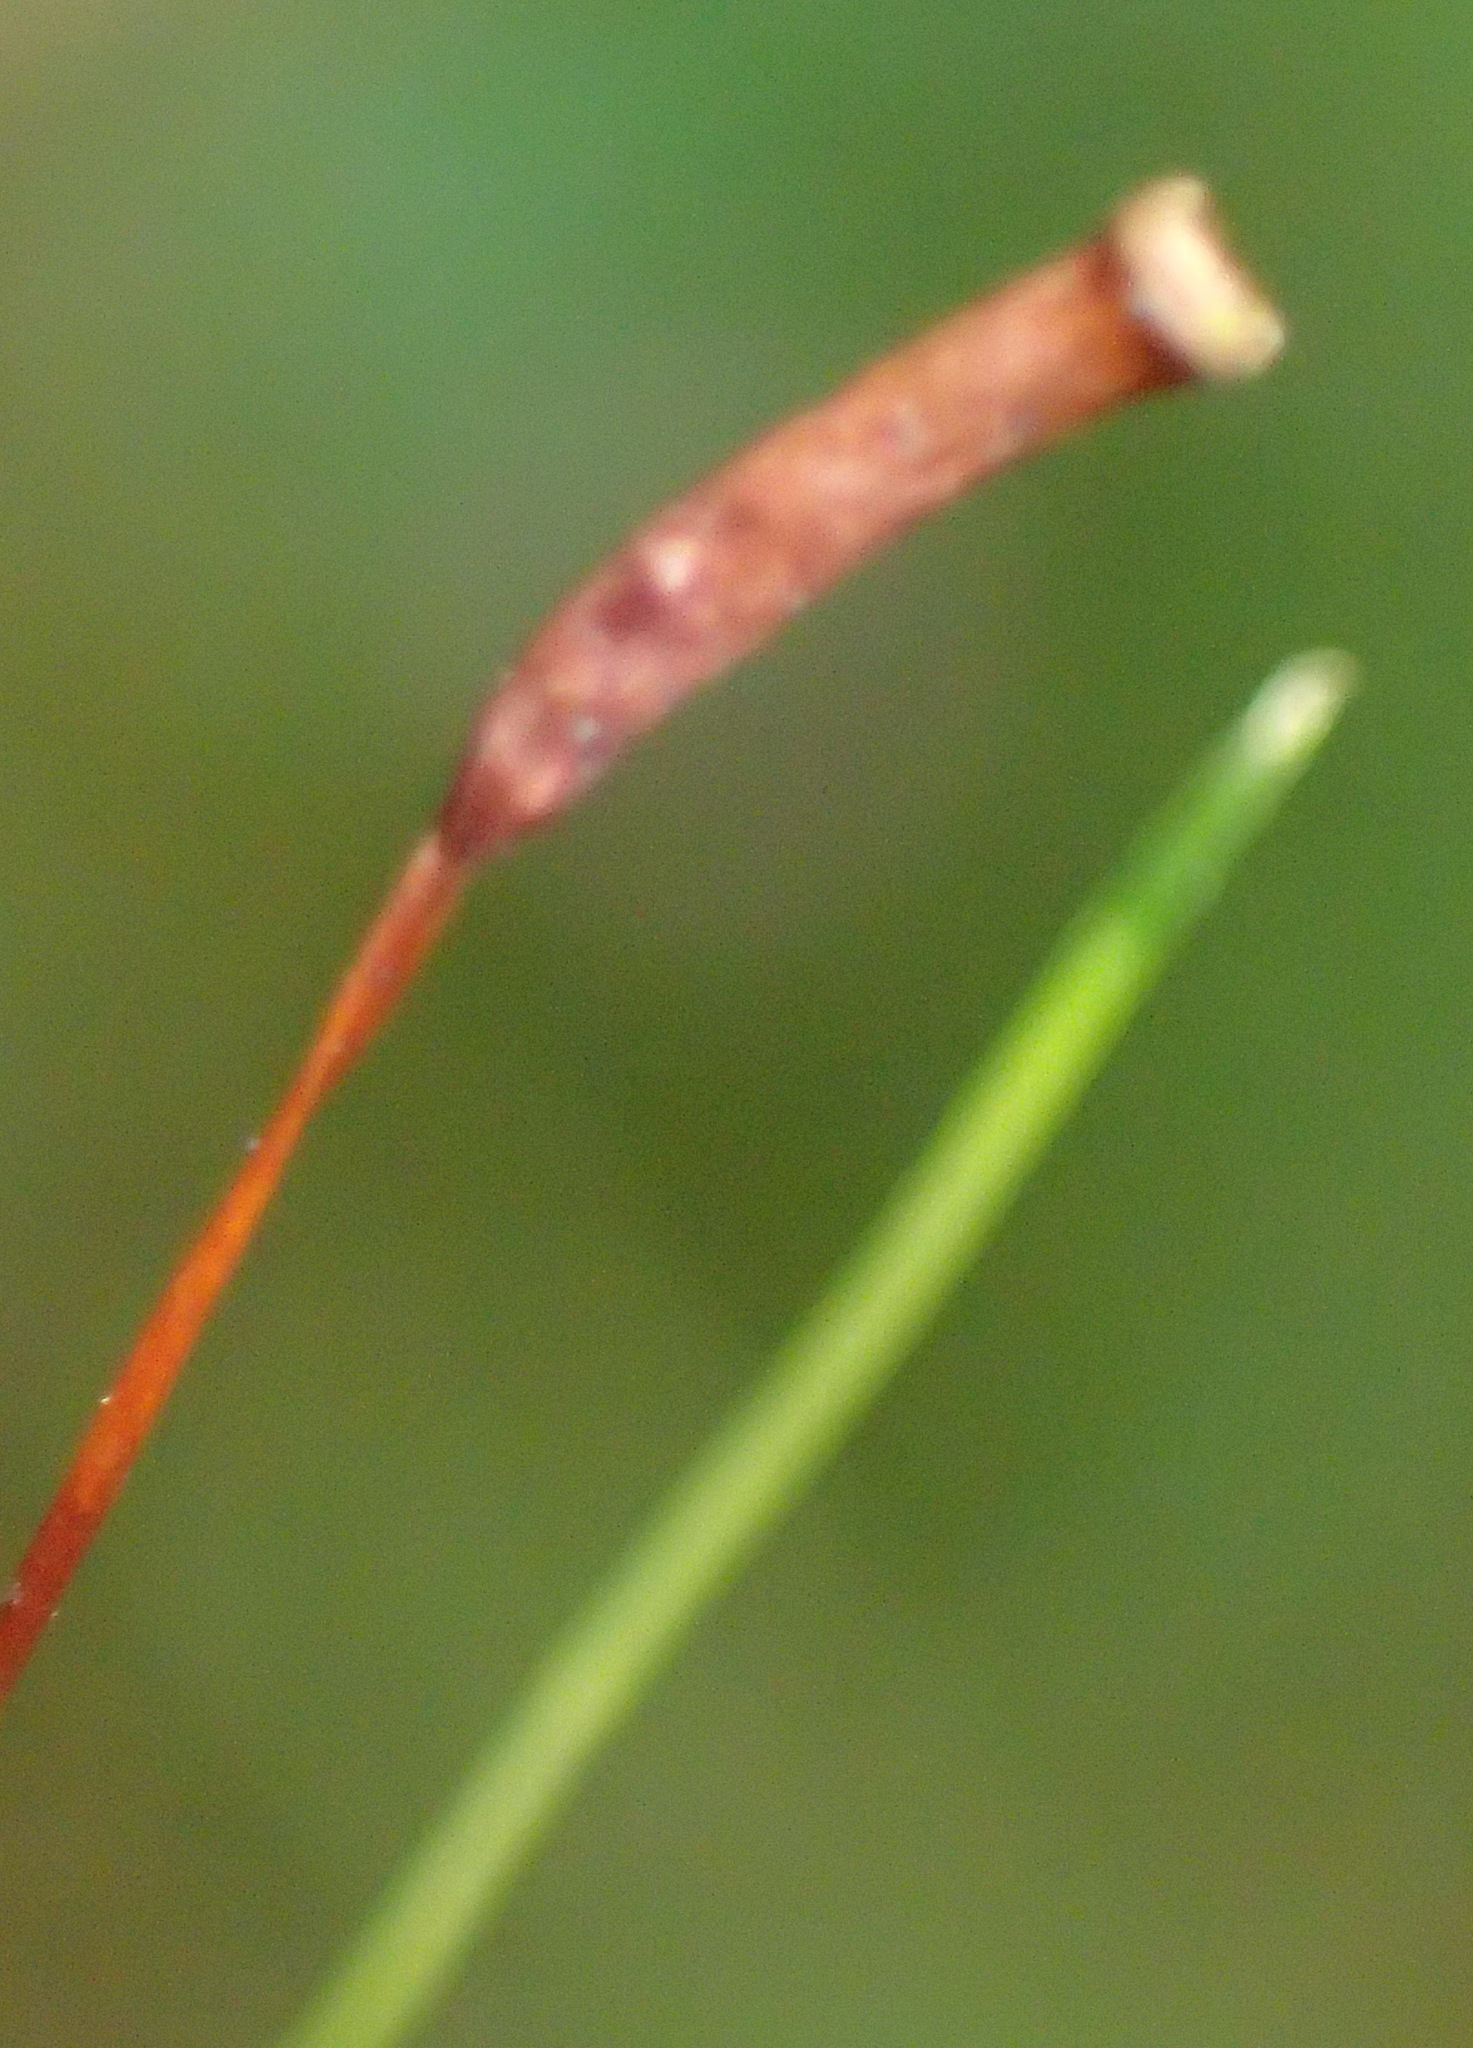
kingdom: Plantae
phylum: Bryophyta
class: Polytrichopsida
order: Polytrichales
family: Polytrichaceae
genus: Atrichum
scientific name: Atrichum androgynum
